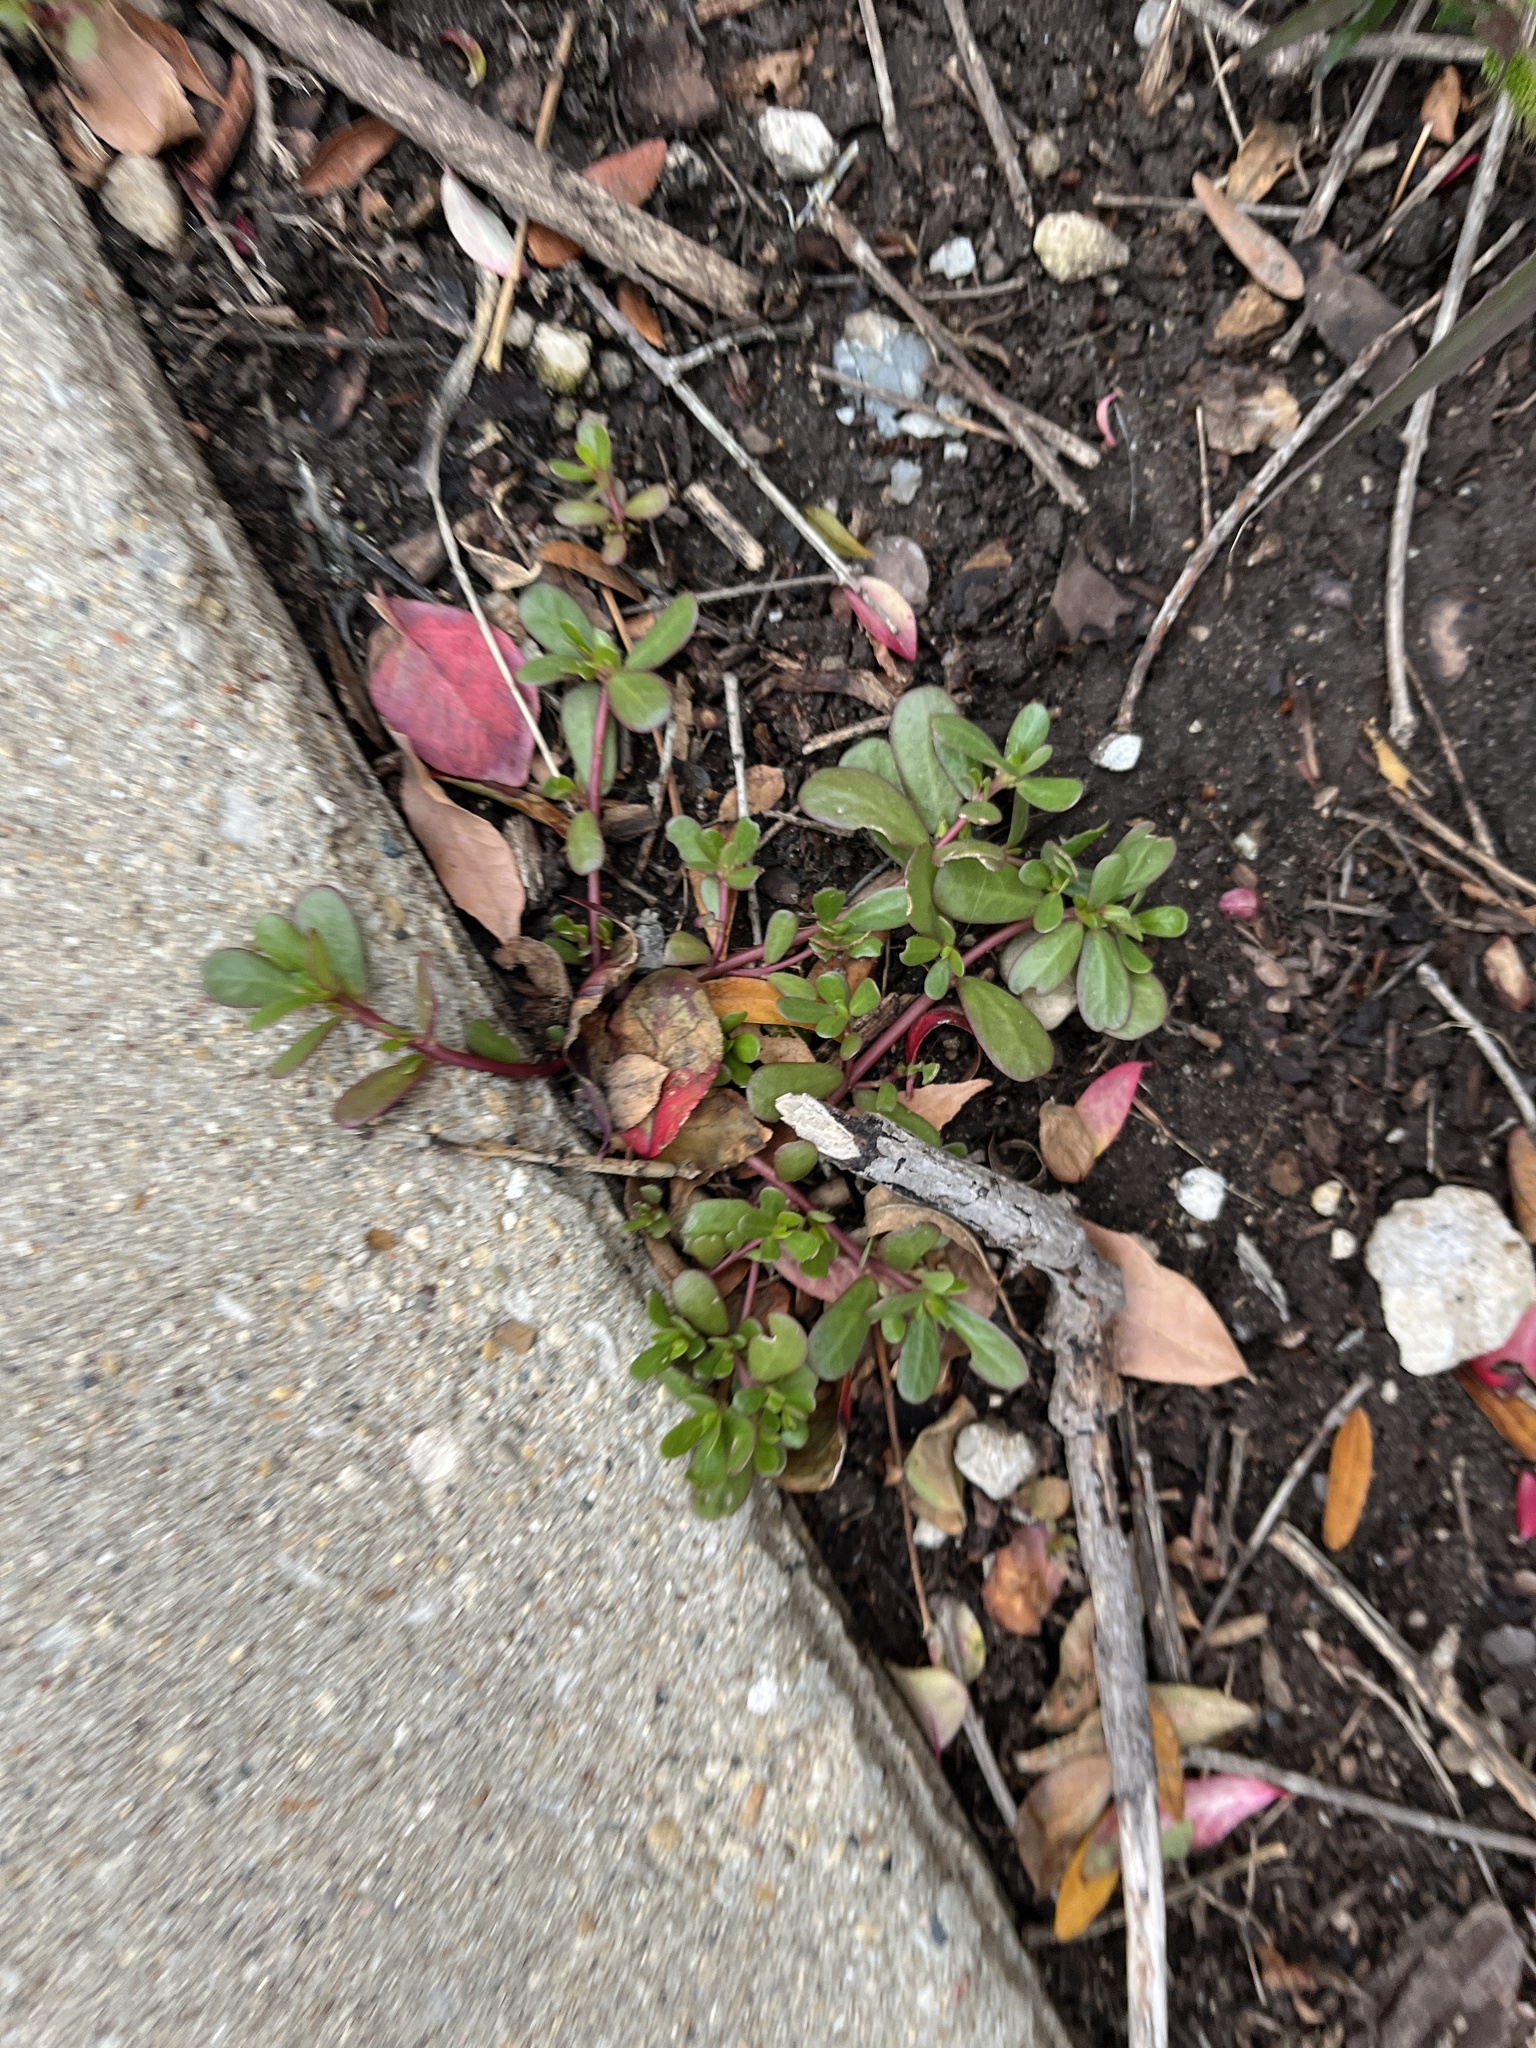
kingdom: Plantae
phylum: Tracheophyta
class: Magnoliopsida
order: Caryophyllales
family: Portulacaceae
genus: Portulaca
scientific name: Portulaca oleracea
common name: Common purslane
